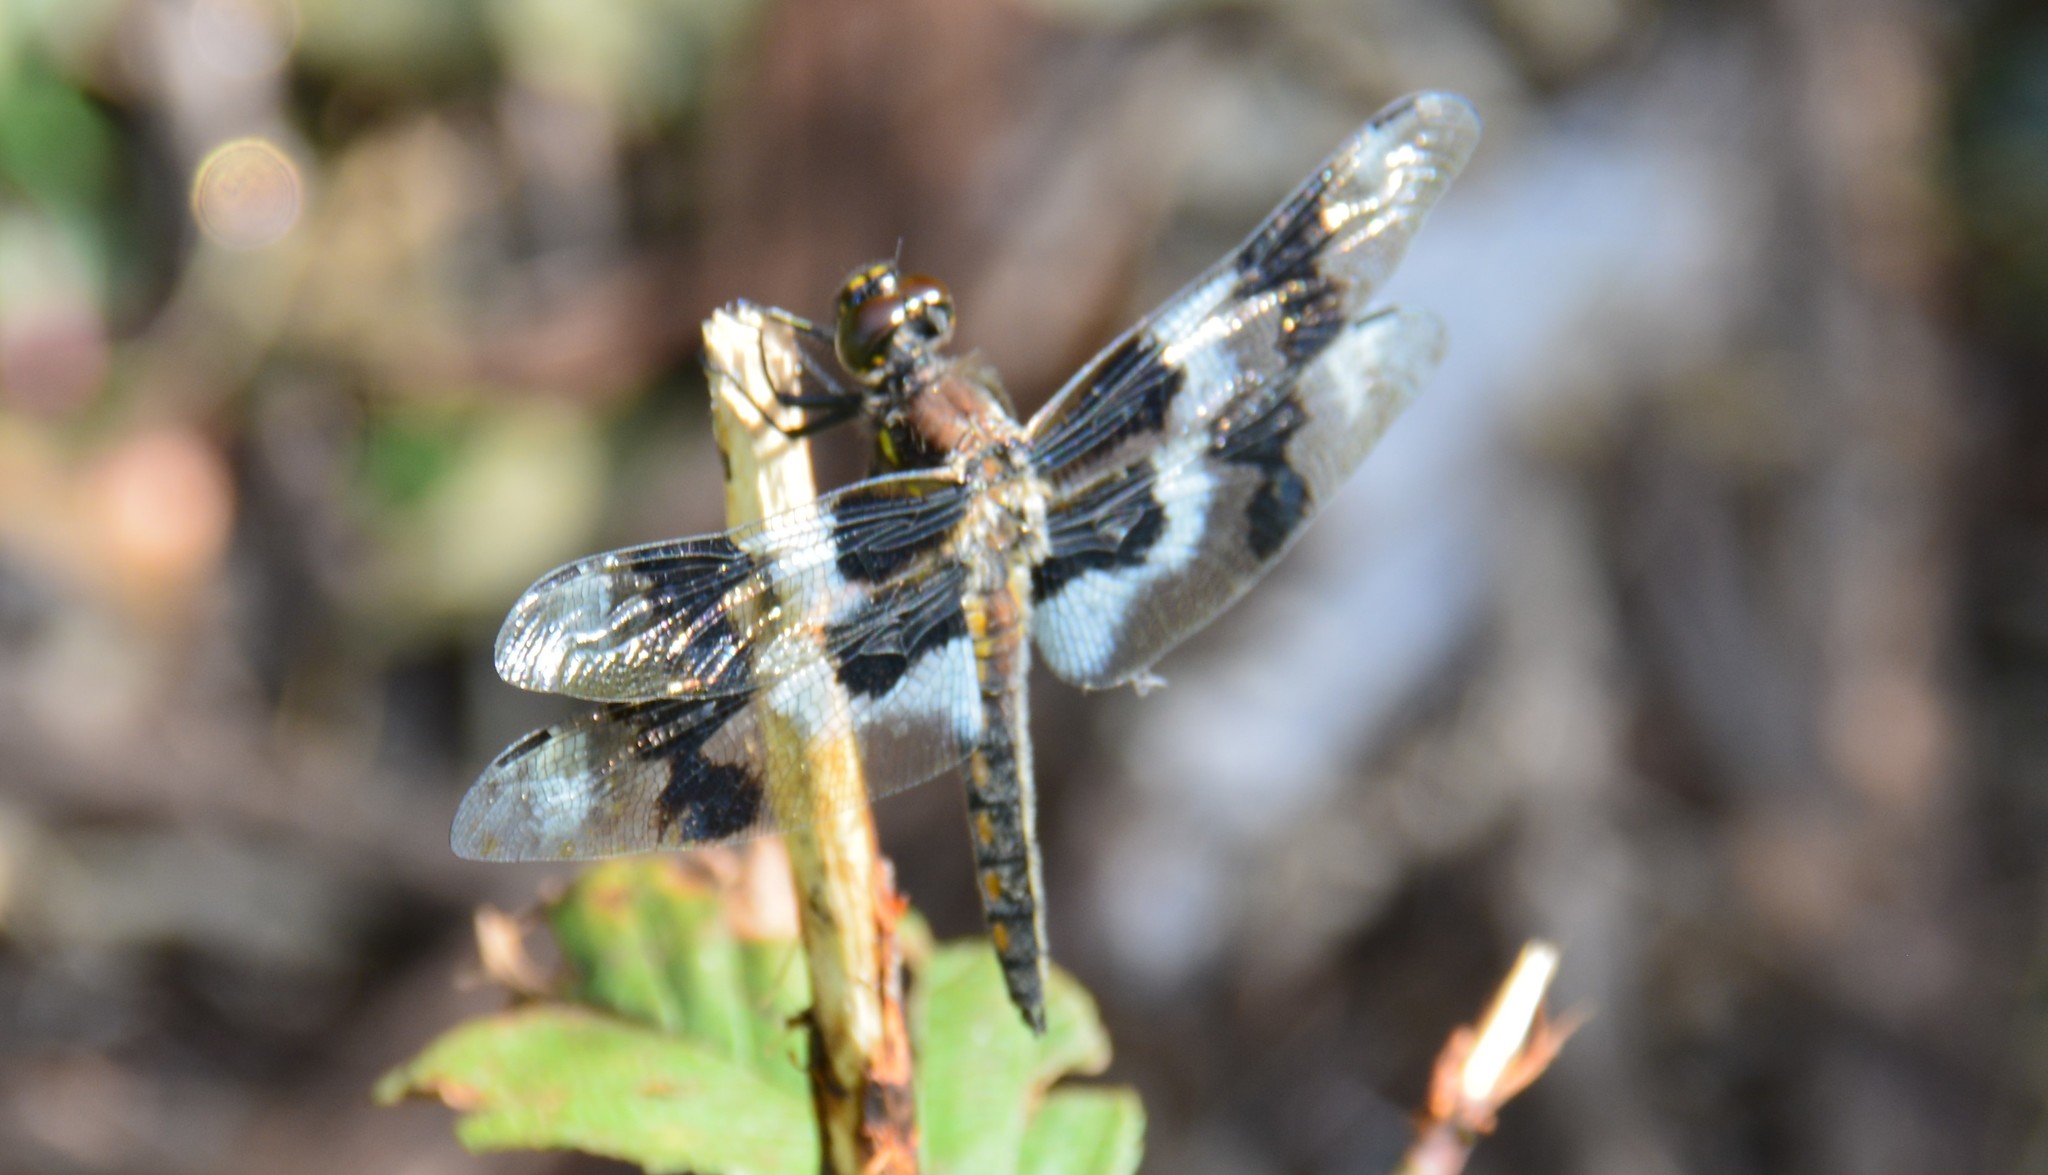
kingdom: Animalia
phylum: Arthropoda
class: Insecta
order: Odonata
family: Libellulidae
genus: Libellula
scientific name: Libellula forensis
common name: Eight-spotted skimmer
